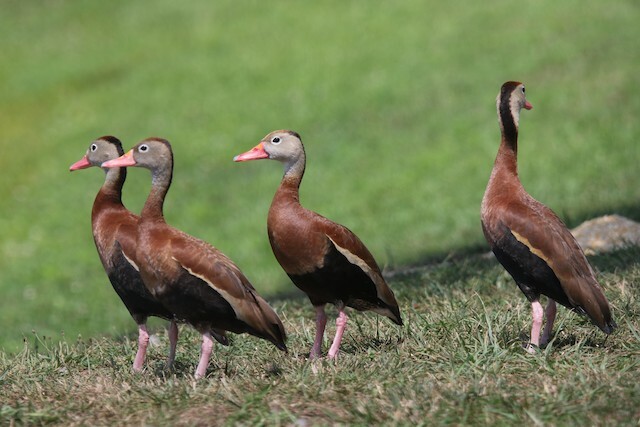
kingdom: Animalia
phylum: Chordata
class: Aves
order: Anseriformes
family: Anatidae
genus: Dendrocygna
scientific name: Dendrocygna autumnalis
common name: Black-bellied whistling duck
